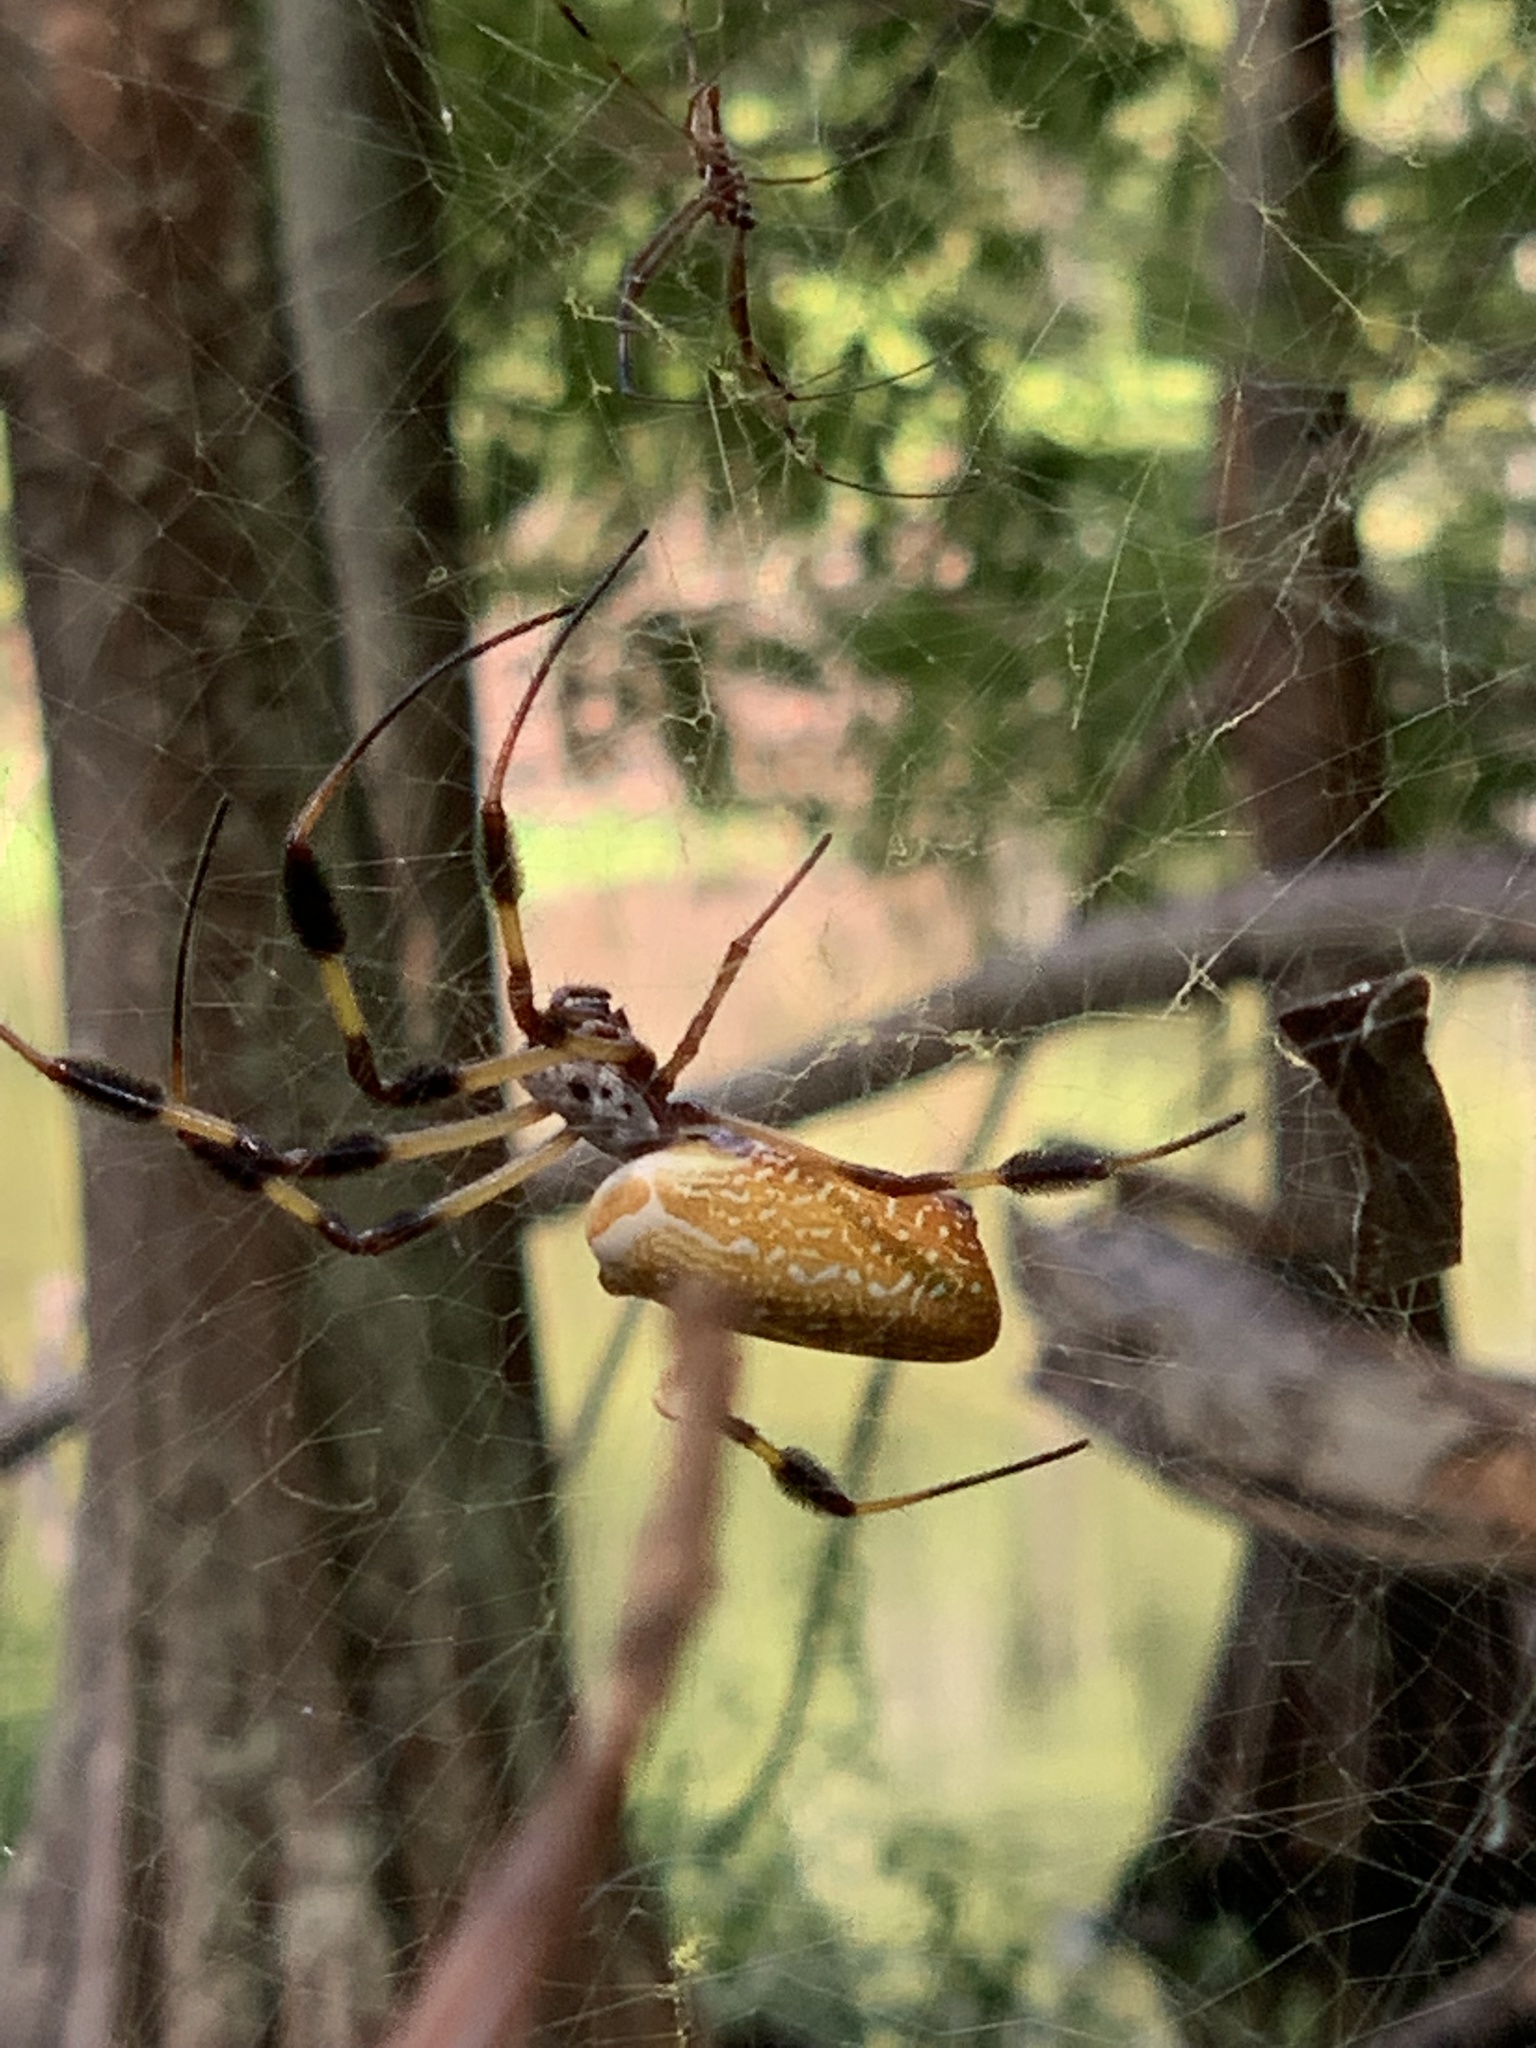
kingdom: Animalia
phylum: Arthropoda
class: Arachnida
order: Araneae
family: Araneidae
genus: Trichonephila
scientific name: Trichonephila clavipes
